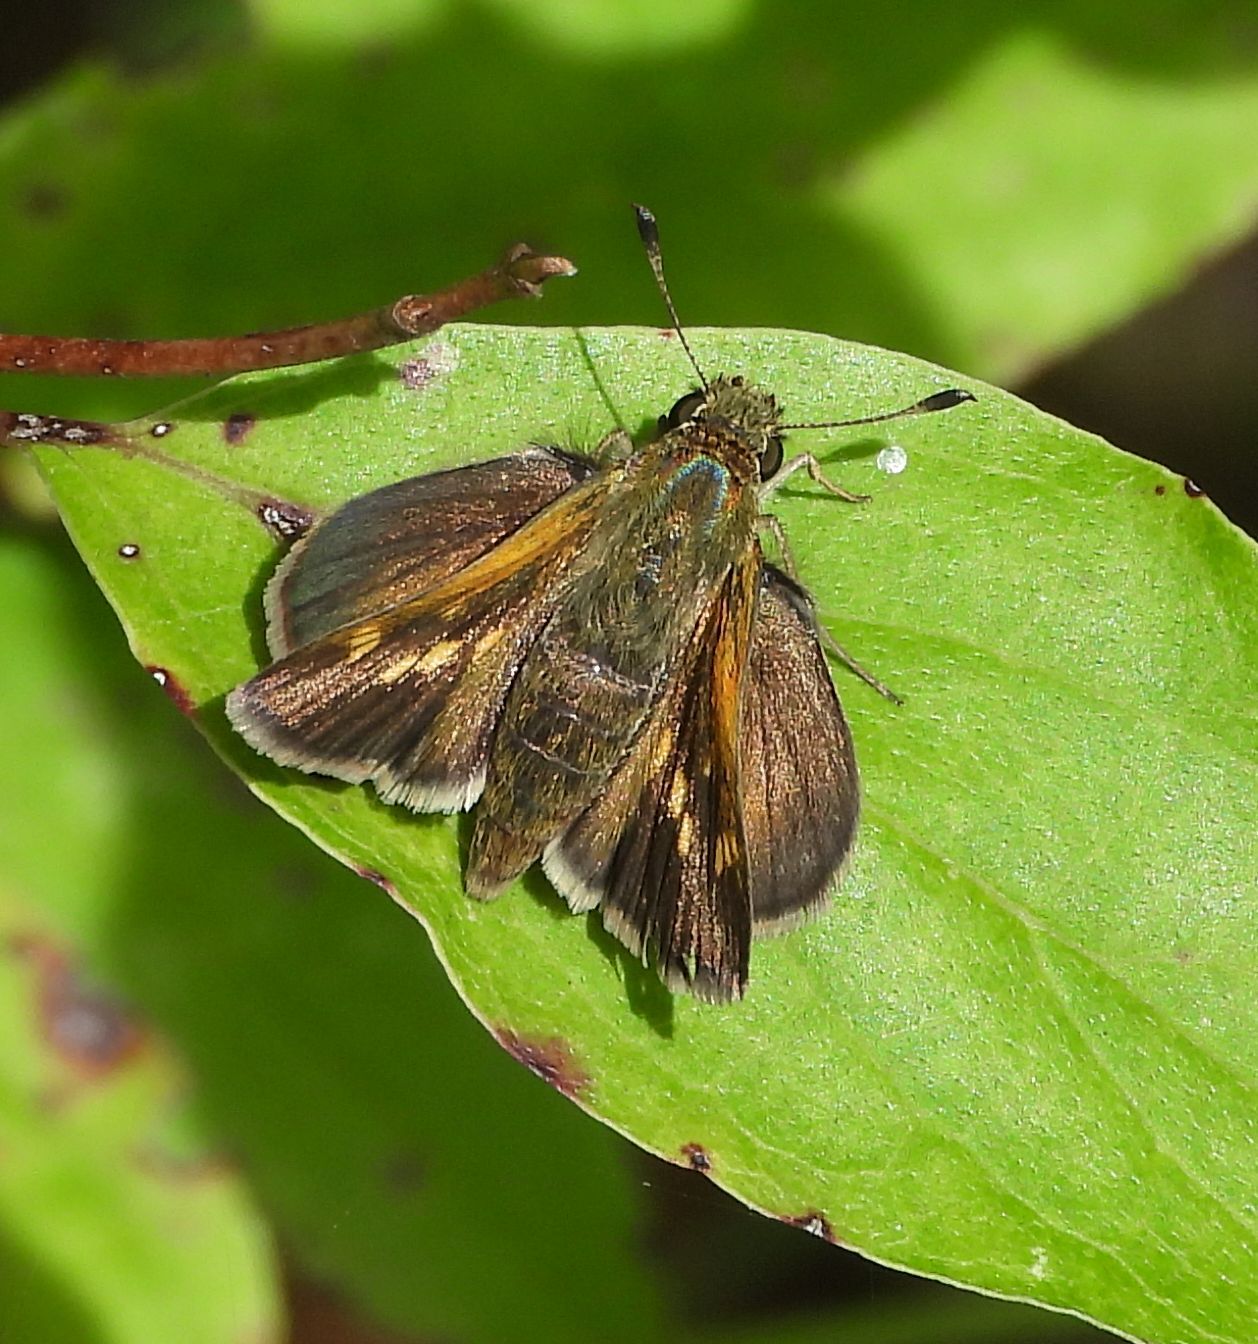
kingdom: Animalia
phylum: Arthropoda
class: Insecta
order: Lepidoptera
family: Hesperiidae
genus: Polites
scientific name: Polites themistocles
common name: Tawny-edged skipper
